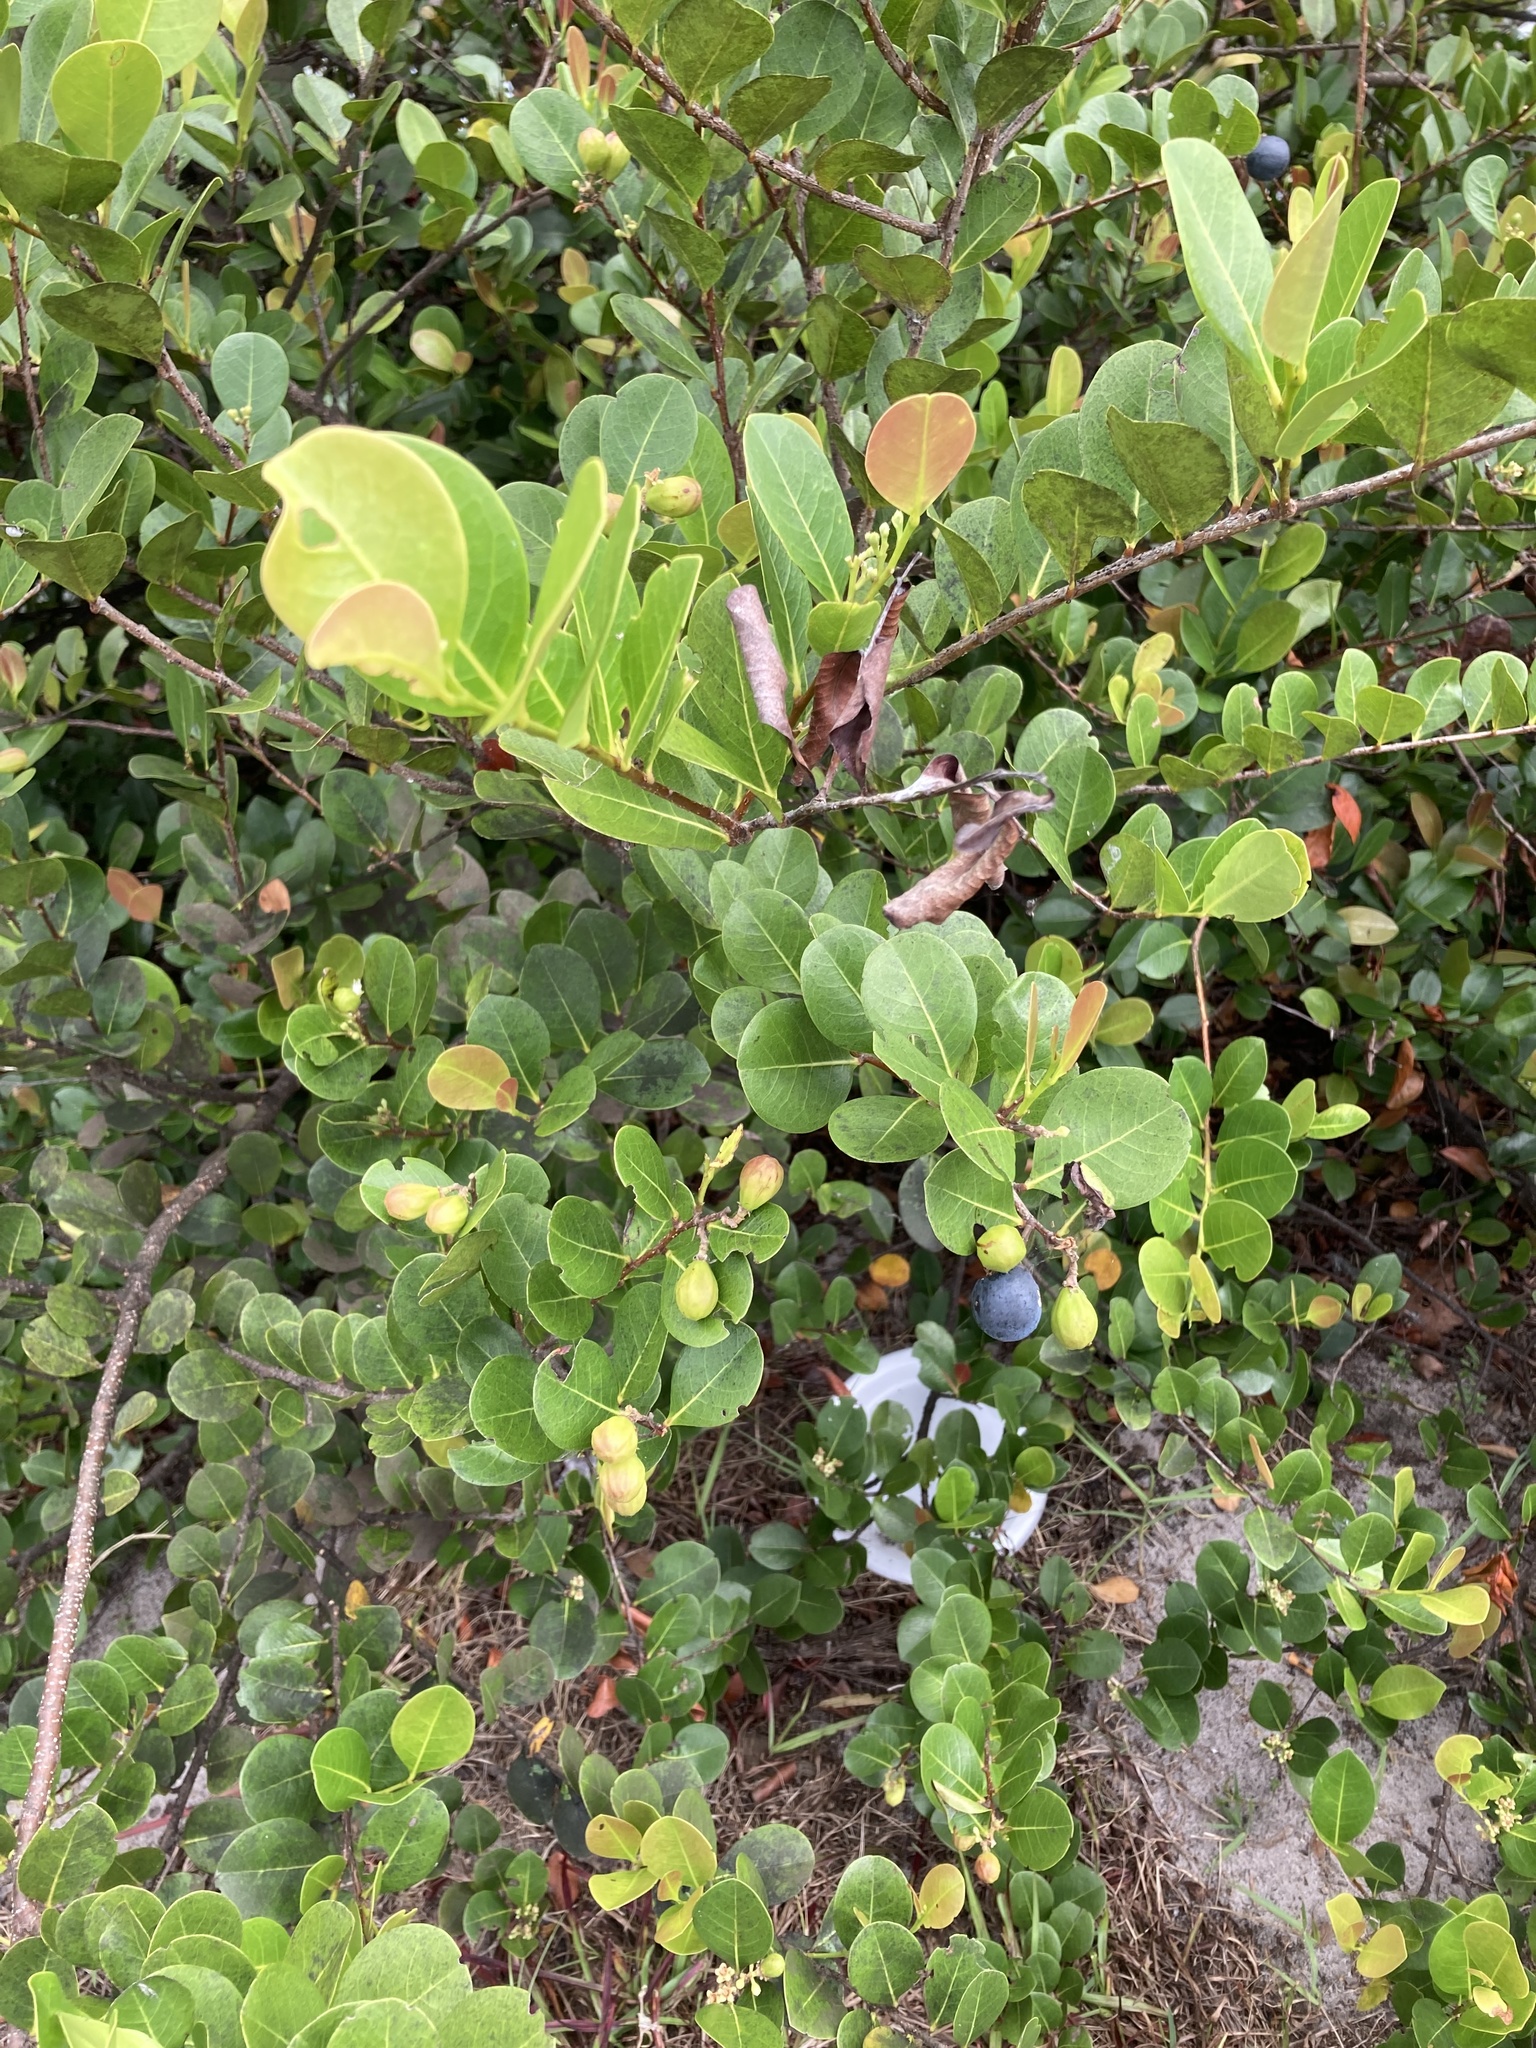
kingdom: Plantae
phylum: Tracheophyta
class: Magnoliopsida
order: Malpighiales
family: Chrysobalanaceae
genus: Chrysobalanus
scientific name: Chrysobalanus icaco
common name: Coco plum
